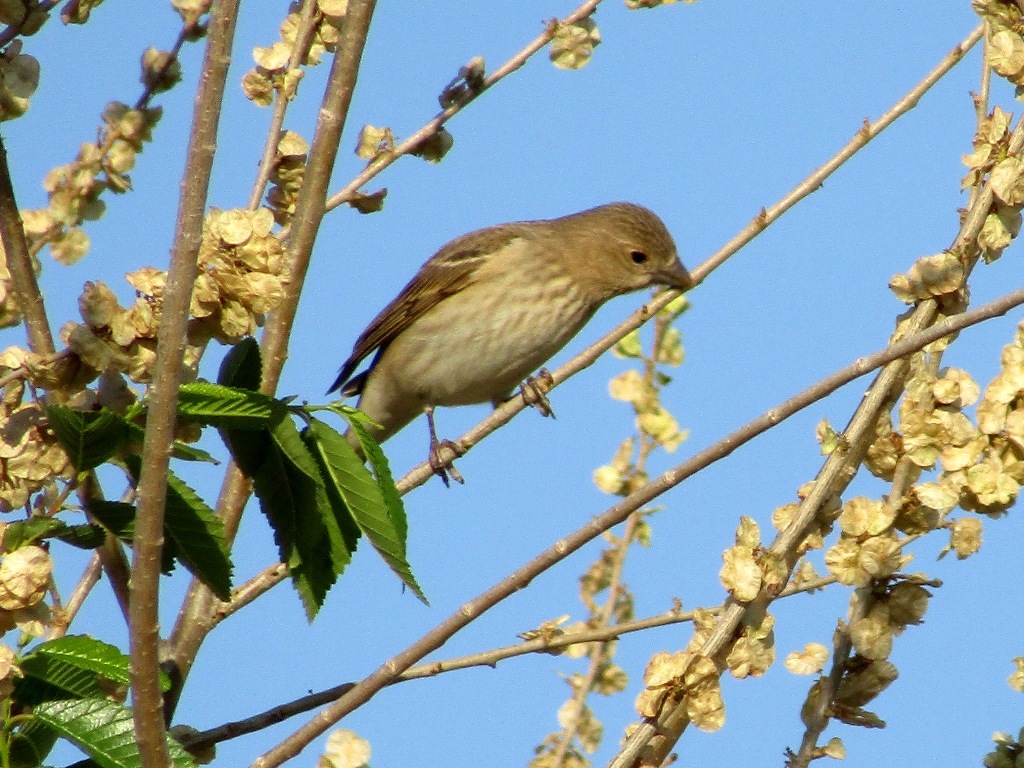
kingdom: Animalia
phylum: Chordata
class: Aves
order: Passeriformes
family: Fringillidae
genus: Carpodacus
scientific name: Carpodacus erythrinus
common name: Common rosefinch
